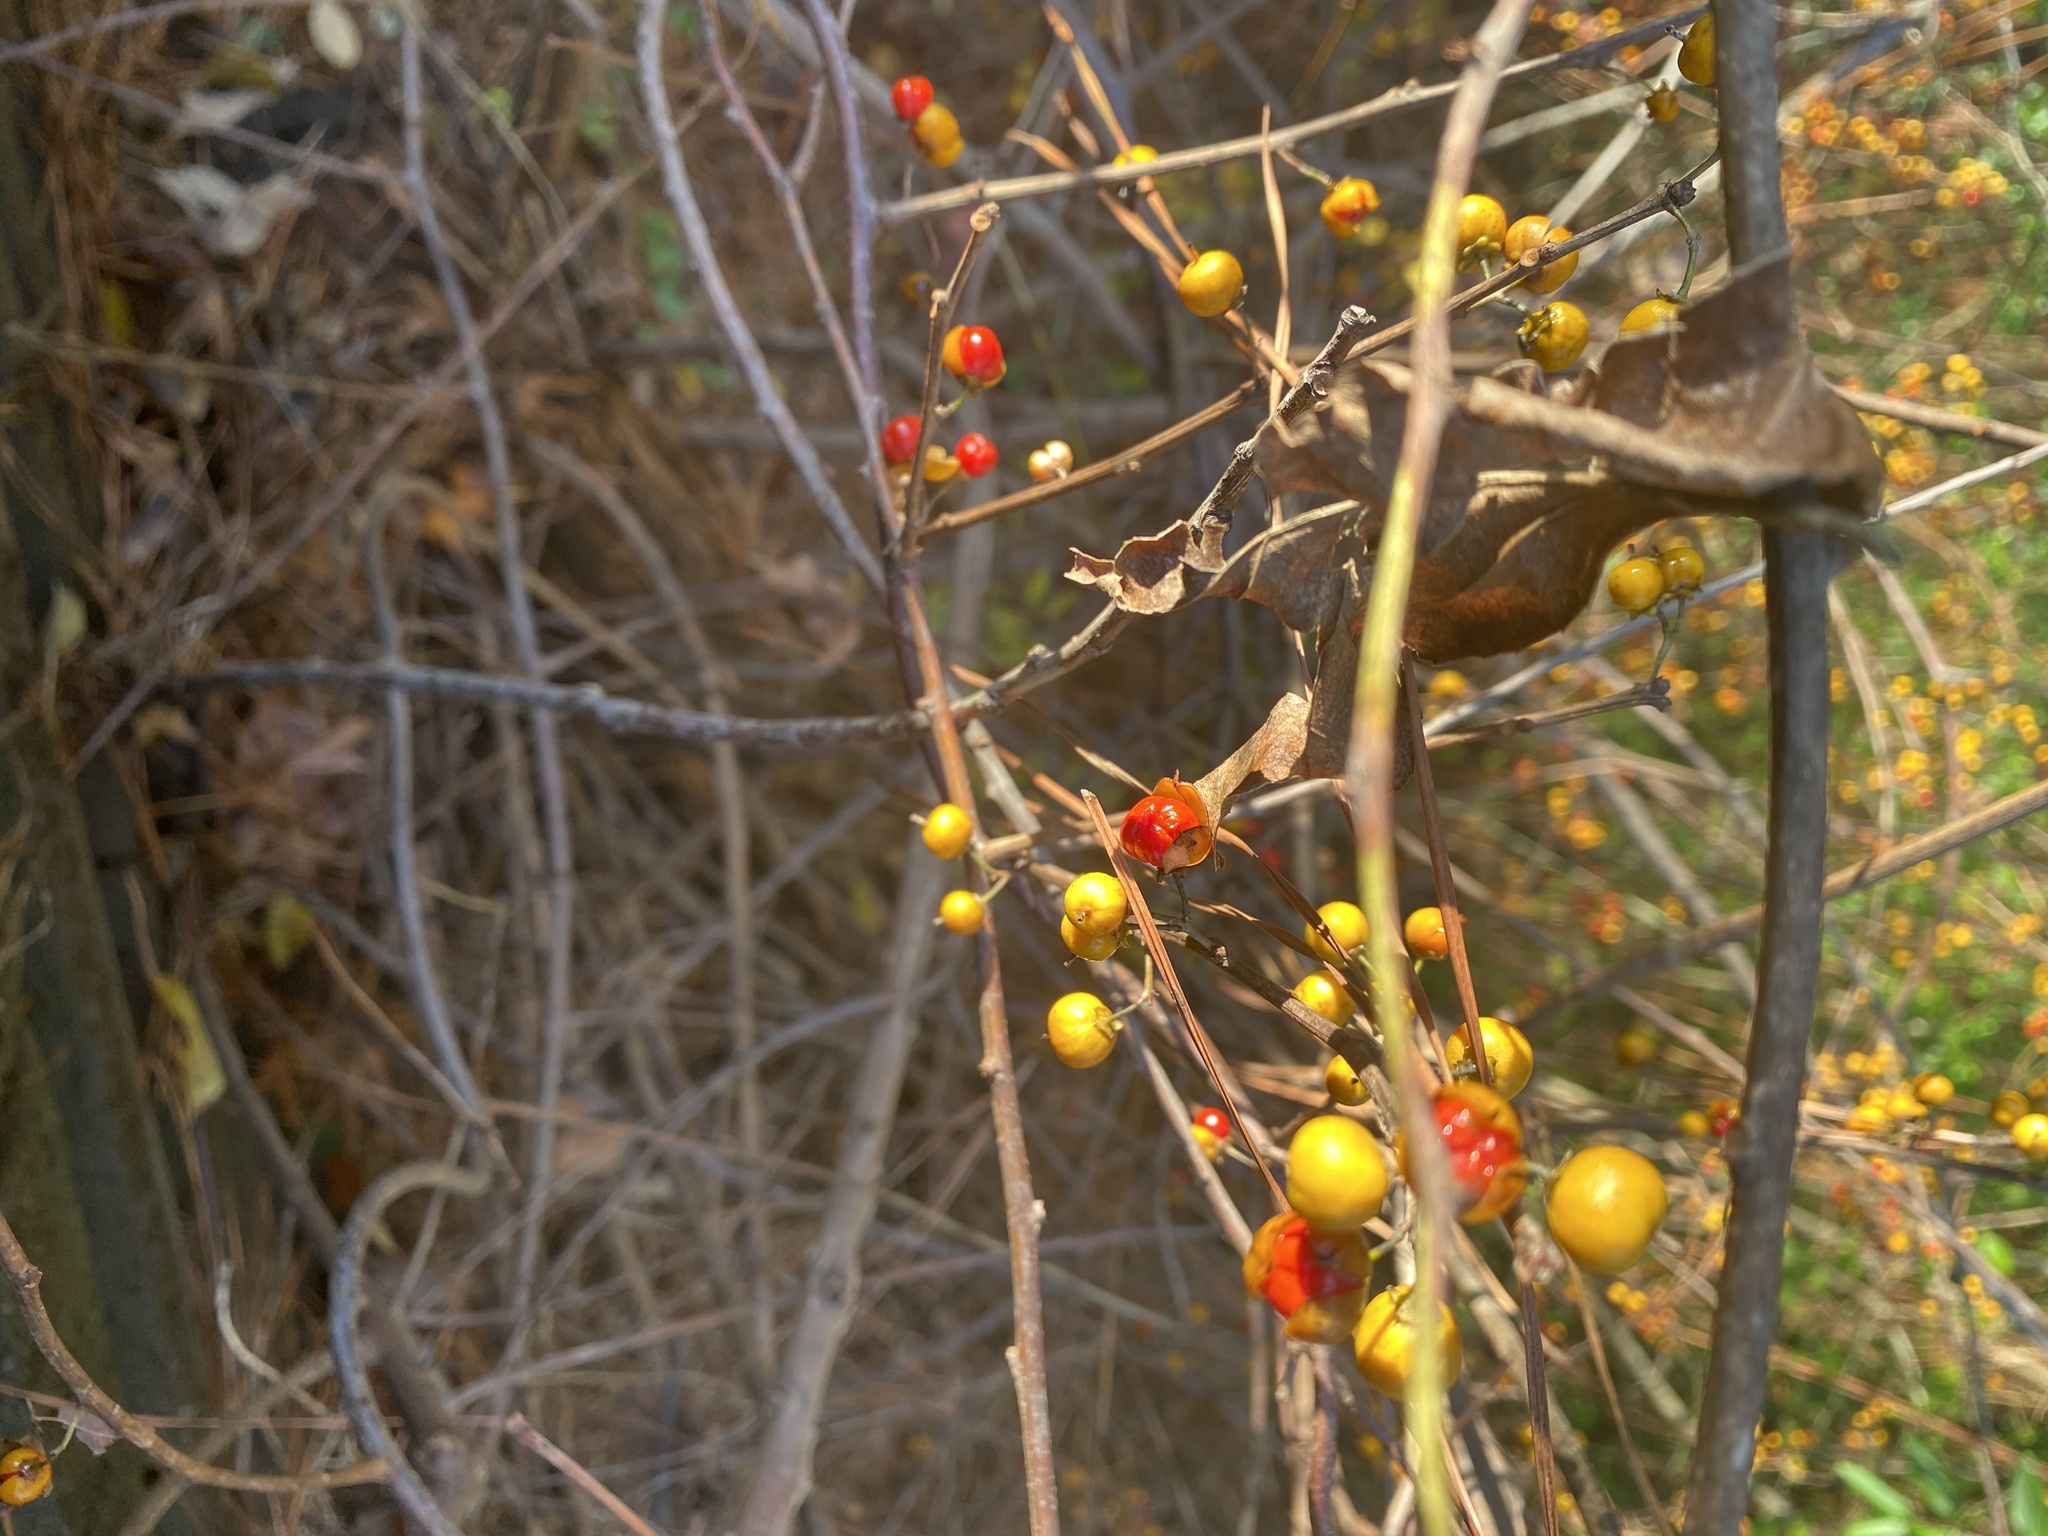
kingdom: Plantae
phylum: Tracheophyta
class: Magnoliopsida
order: Celastrales
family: Celastraceae
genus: Celastrus
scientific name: Celastrus orbiculatus
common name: Oriental bittersweet
